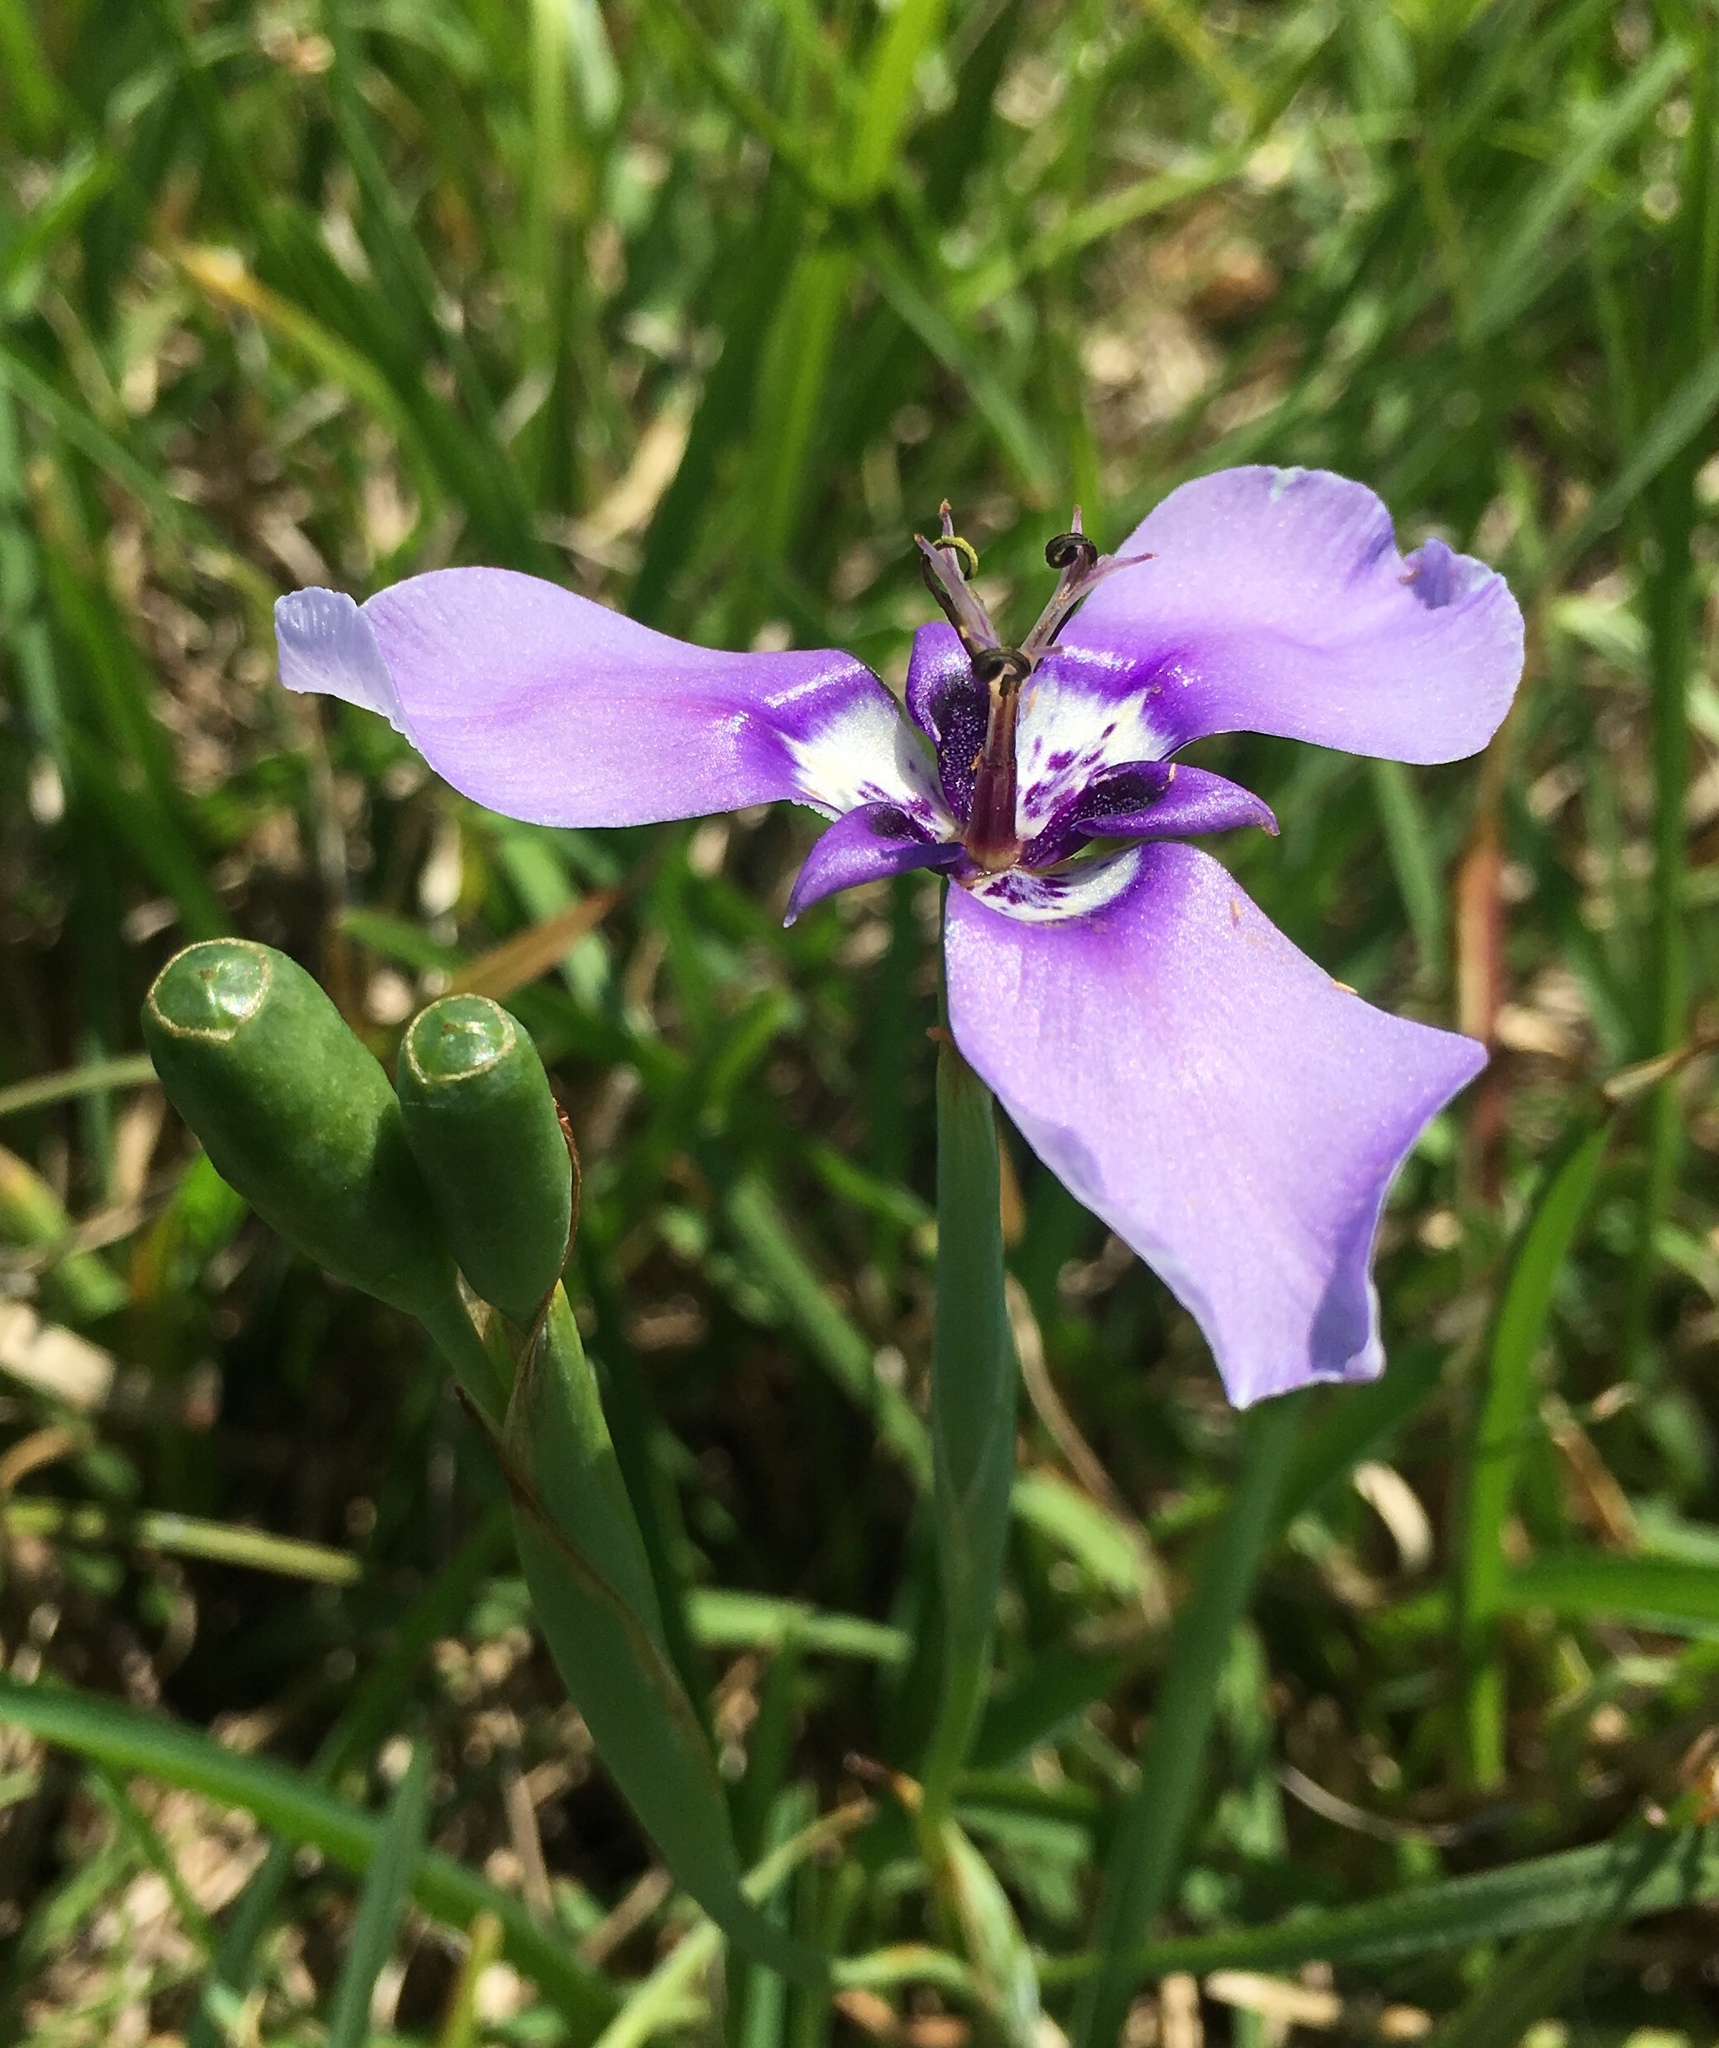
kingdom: Plantae
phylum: Tracheophyta
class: Liliopsida
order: Asparagales
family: Iridaceae
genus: Herbertia
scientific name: Herbertia lahue
